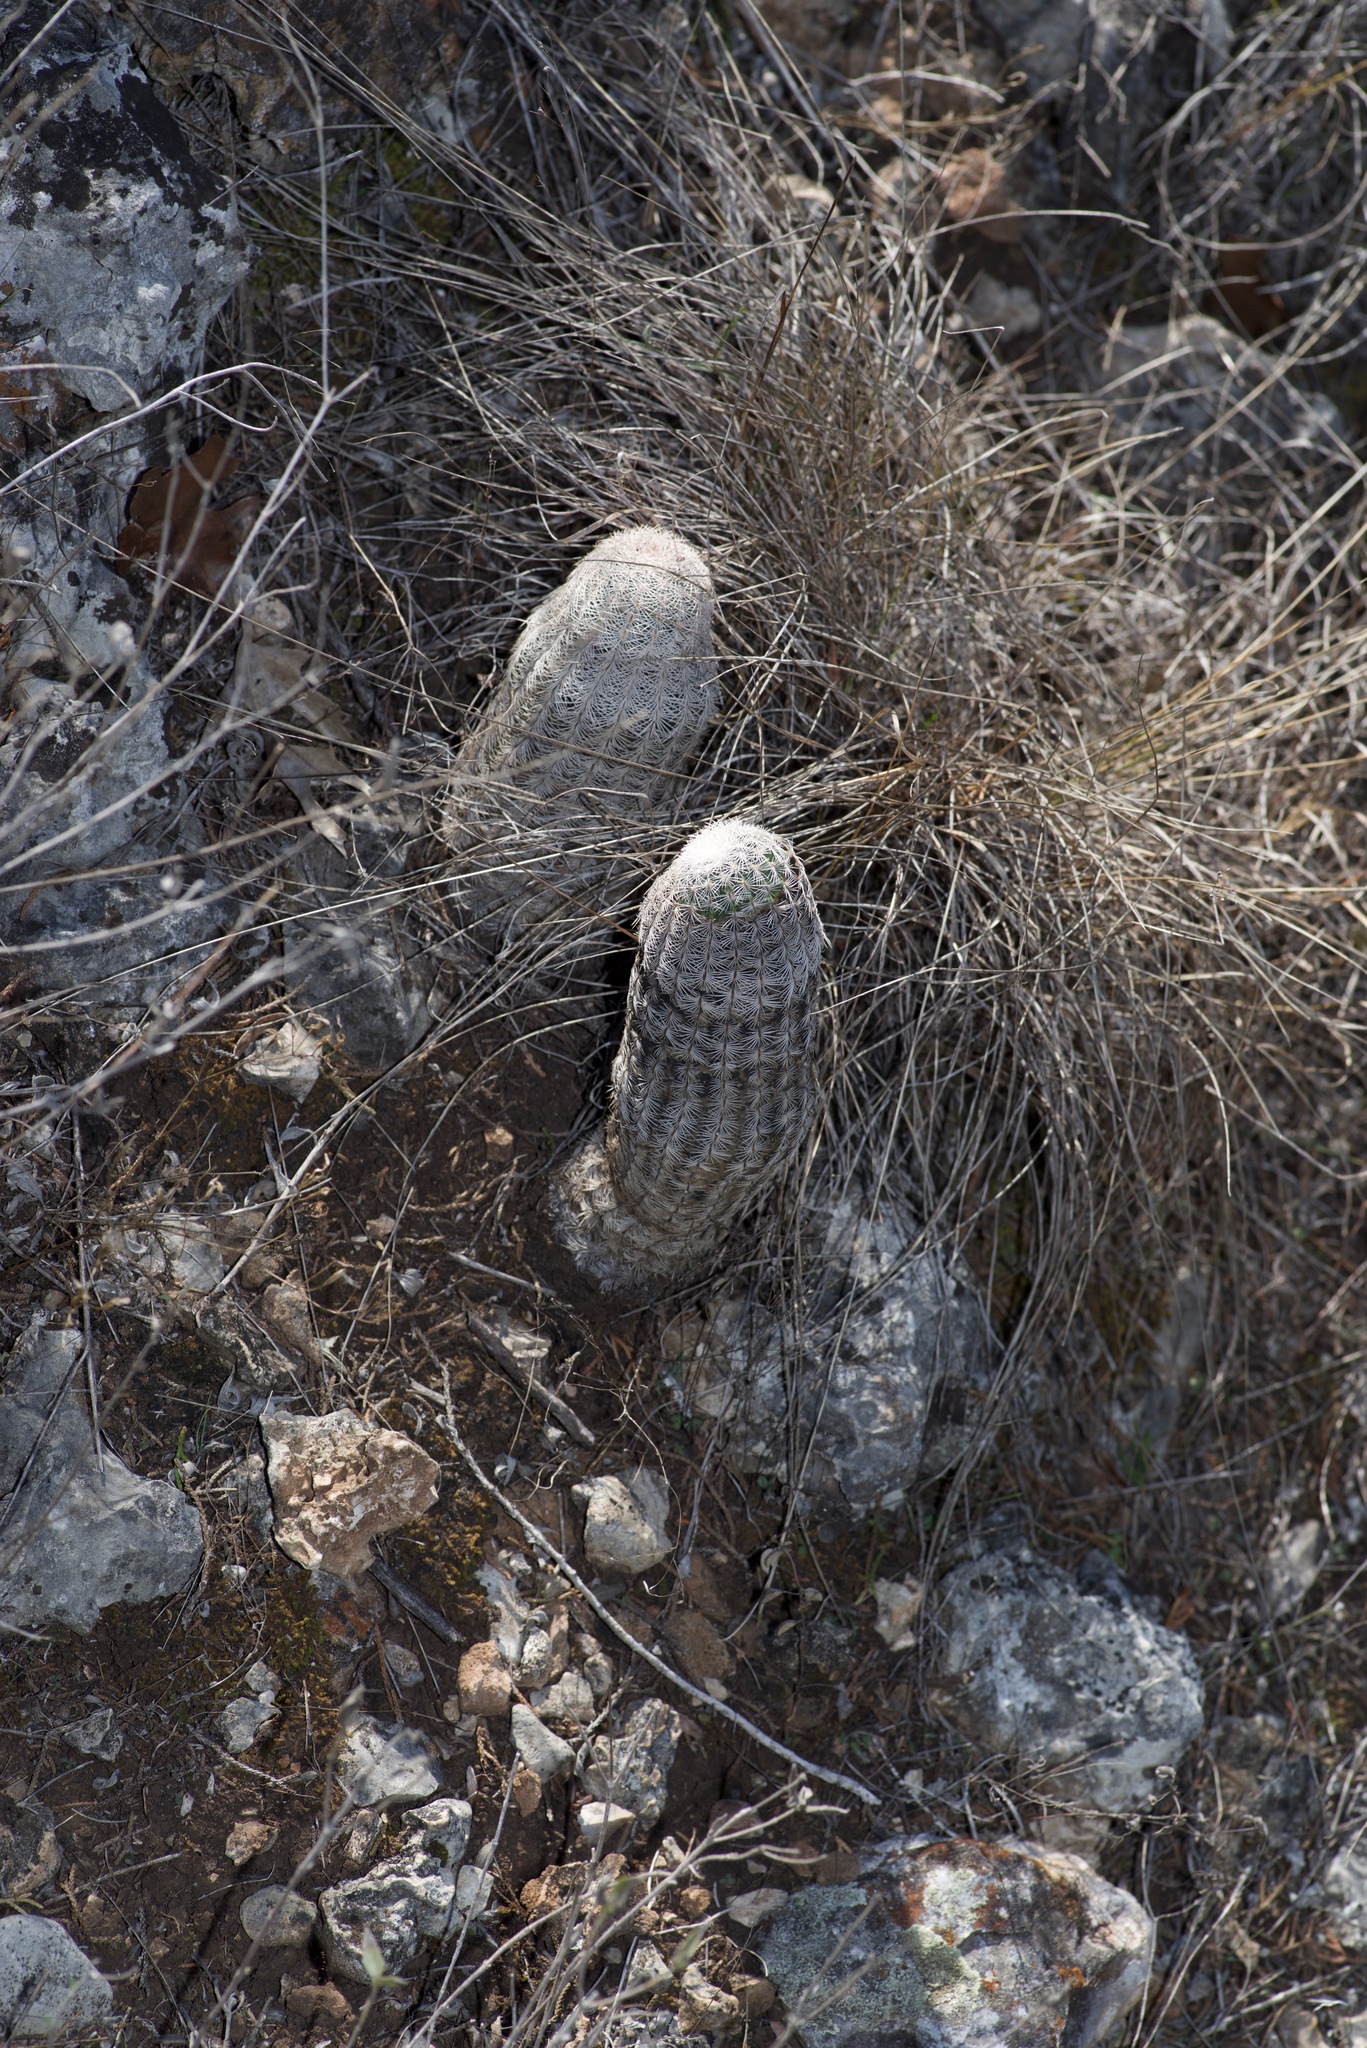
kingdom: Plantae
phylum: Tracheophyta
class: Magnoliopsida
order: Caryophyllales
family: Cactaceae
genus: Echinocereus
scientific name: Echinocereus reichenbachii
